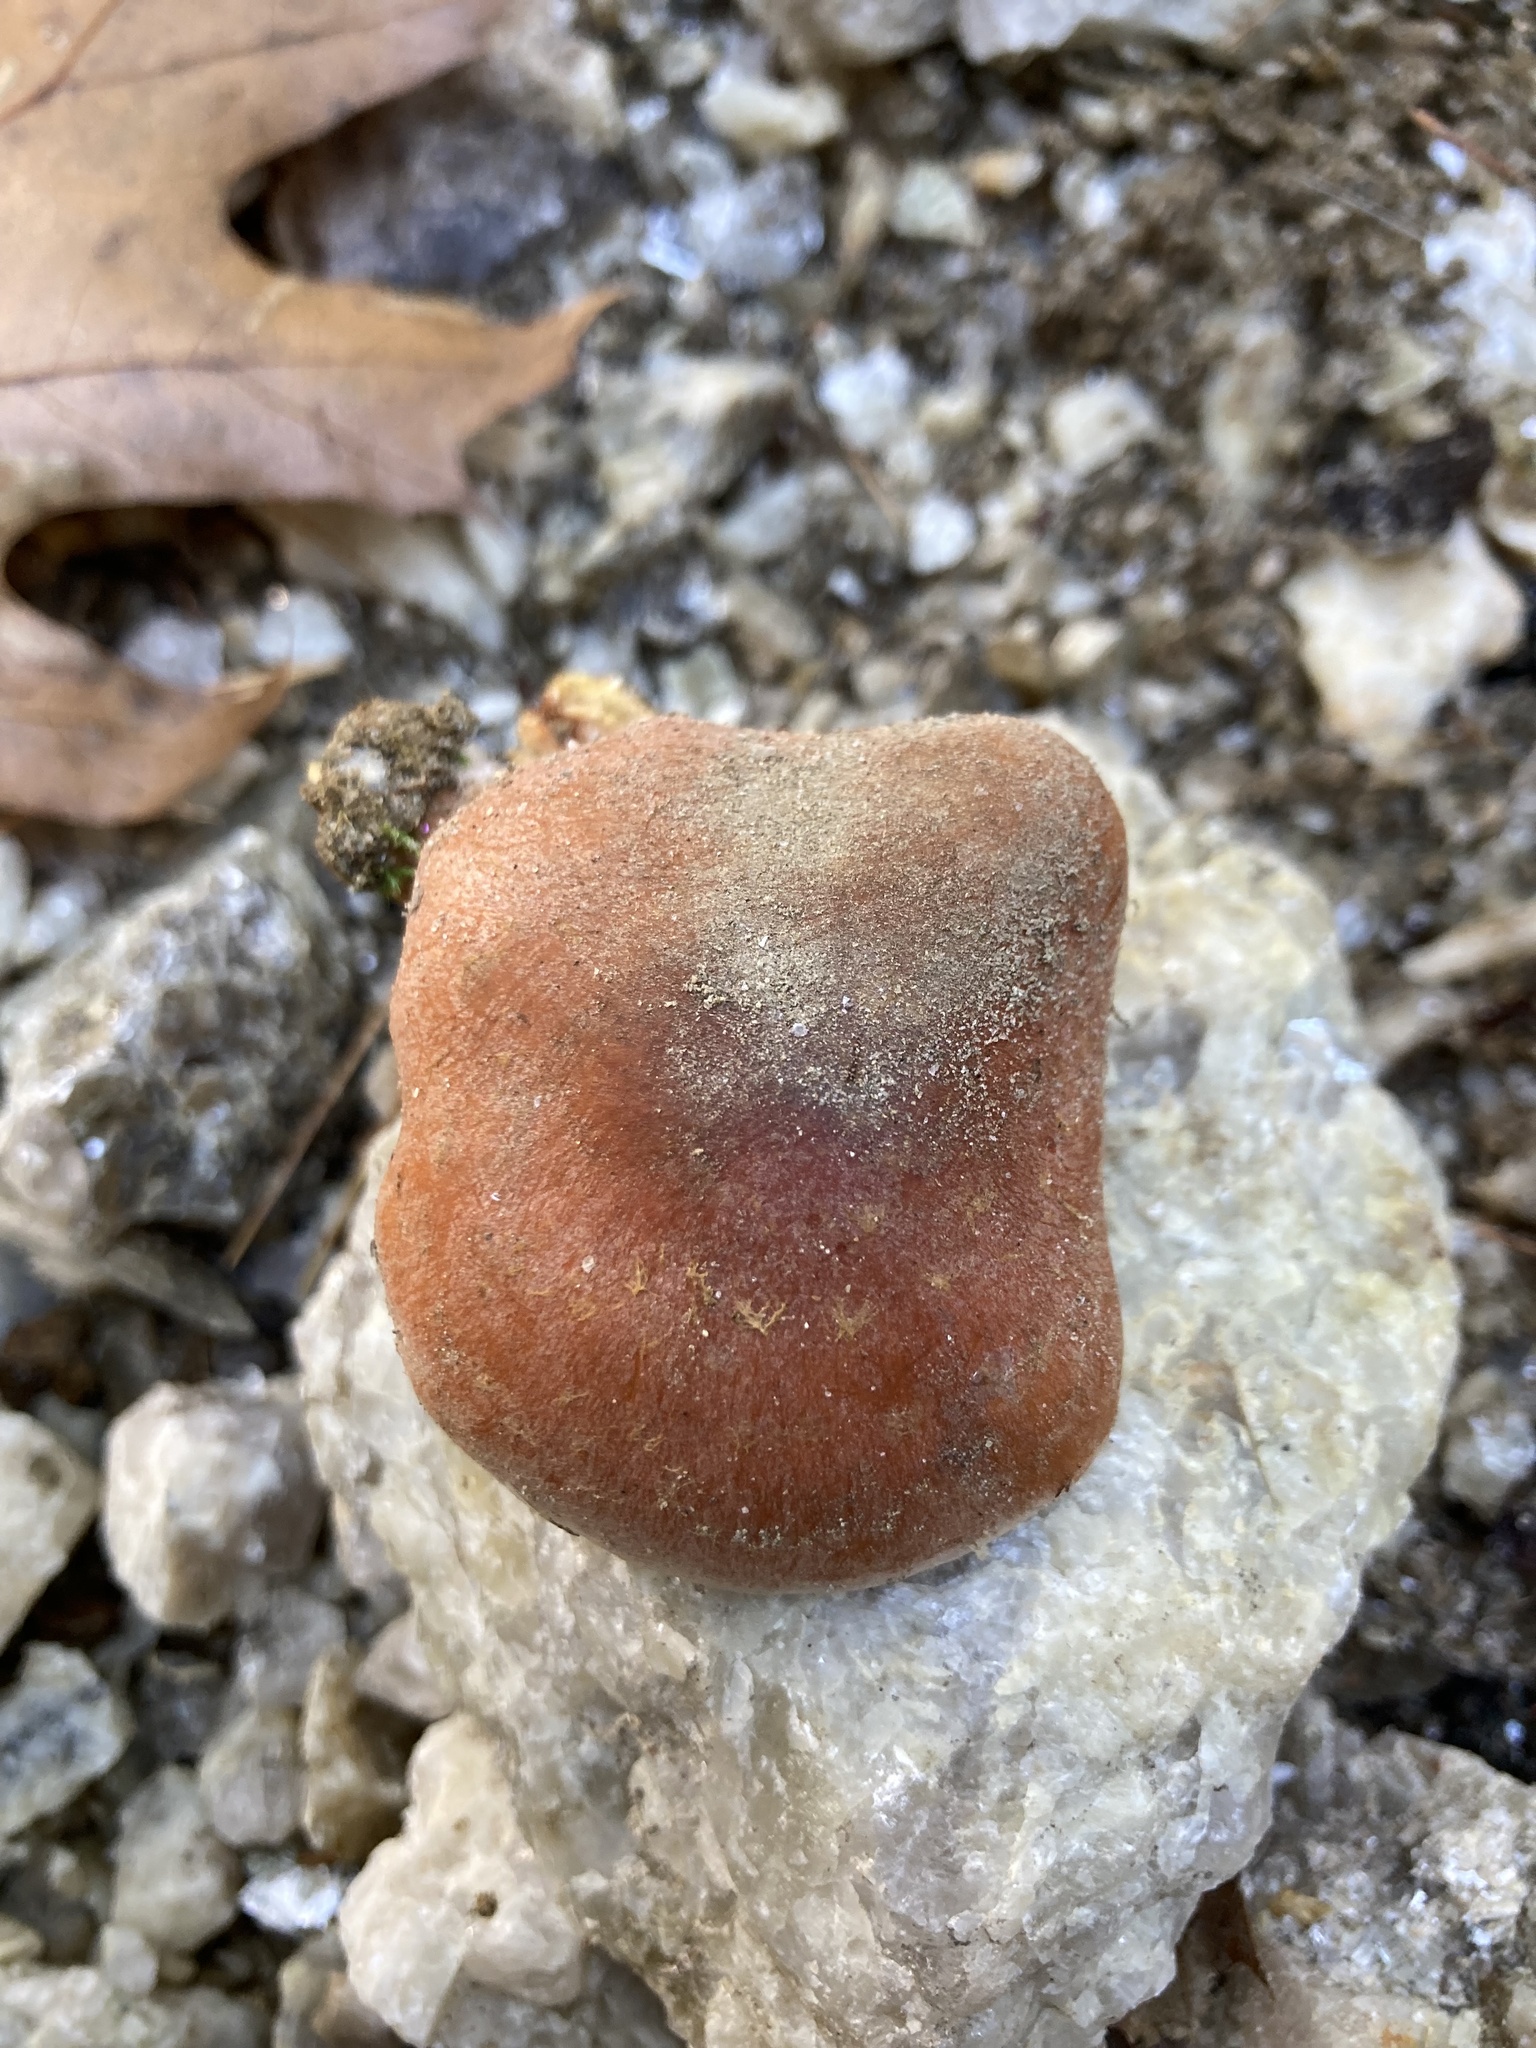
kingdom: Fungi
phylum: Basidiomycota
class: Agaricomycetes
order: Agaricales
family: Strophariaceae
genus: Hypholoma
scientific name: Hypholoma lateritium
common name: Brick caps
